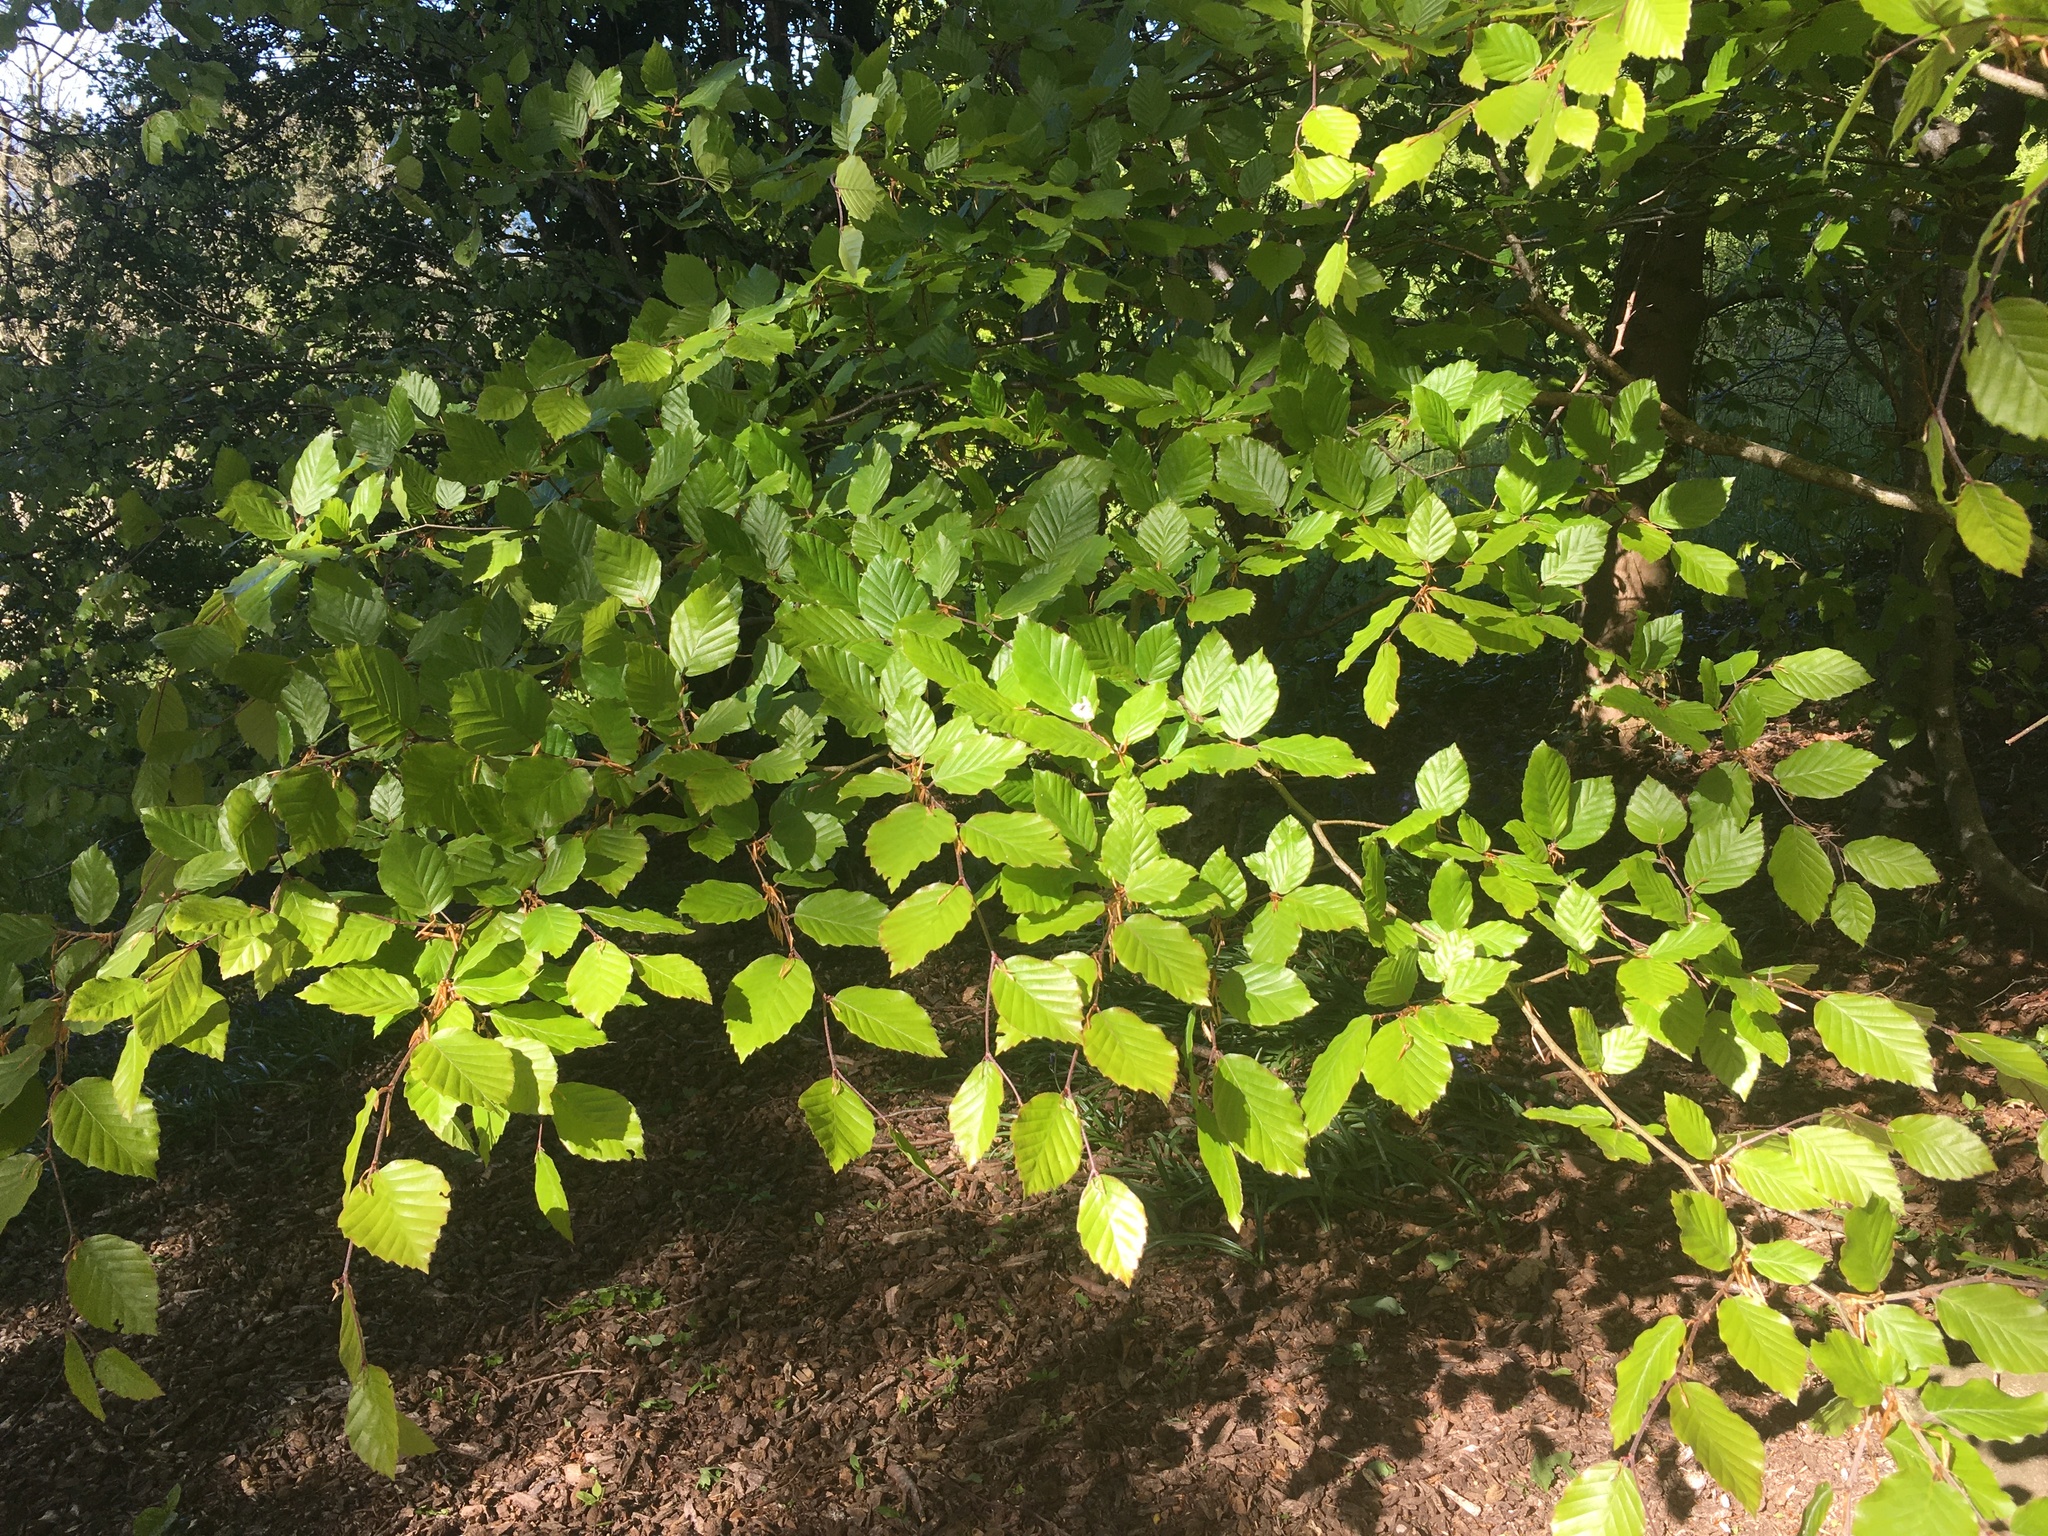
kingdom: Plantae
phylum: Tracheophyta
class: Magnoliopsida
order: Fagales
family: Fagaceae
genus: Fagus
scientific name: Fagus sylvatica
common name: Beech
